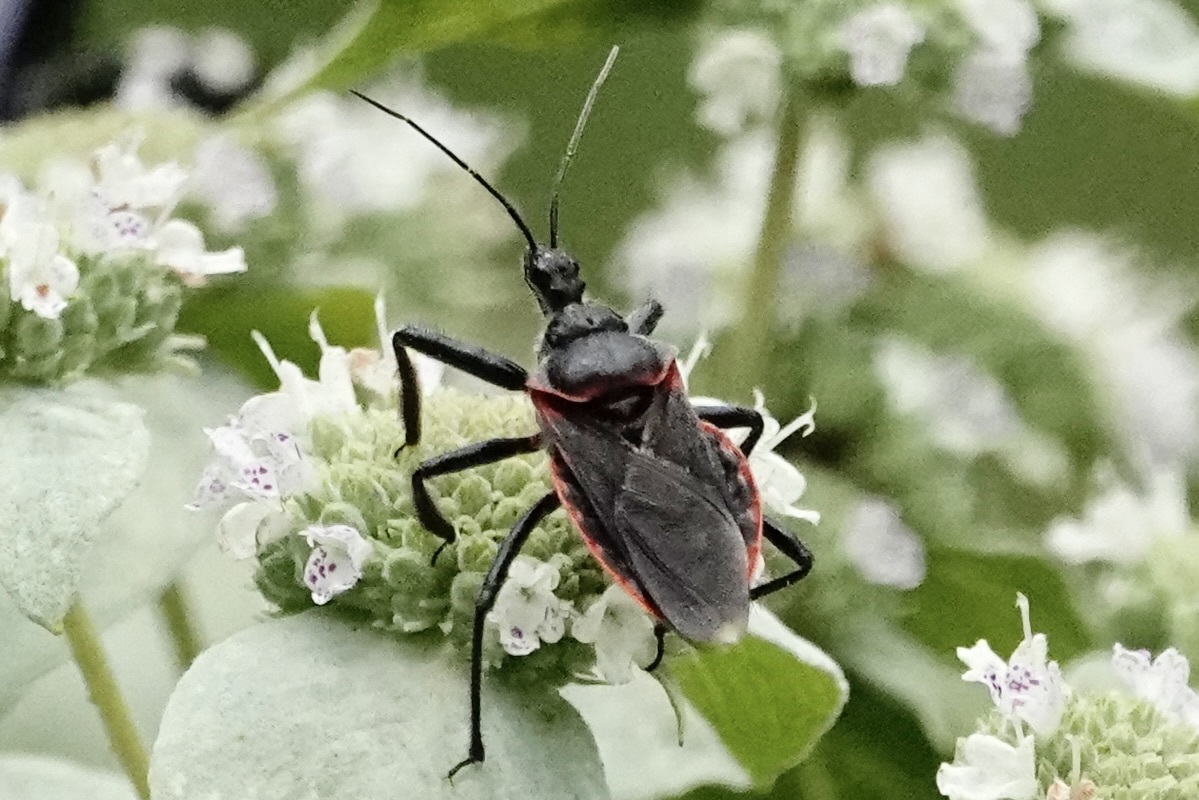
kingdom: Animalia
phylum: Arthropoda
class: Insecta
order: Hemiptera
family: Reduviidae
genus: Apiomerus
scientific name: Apiomerus crassipes
